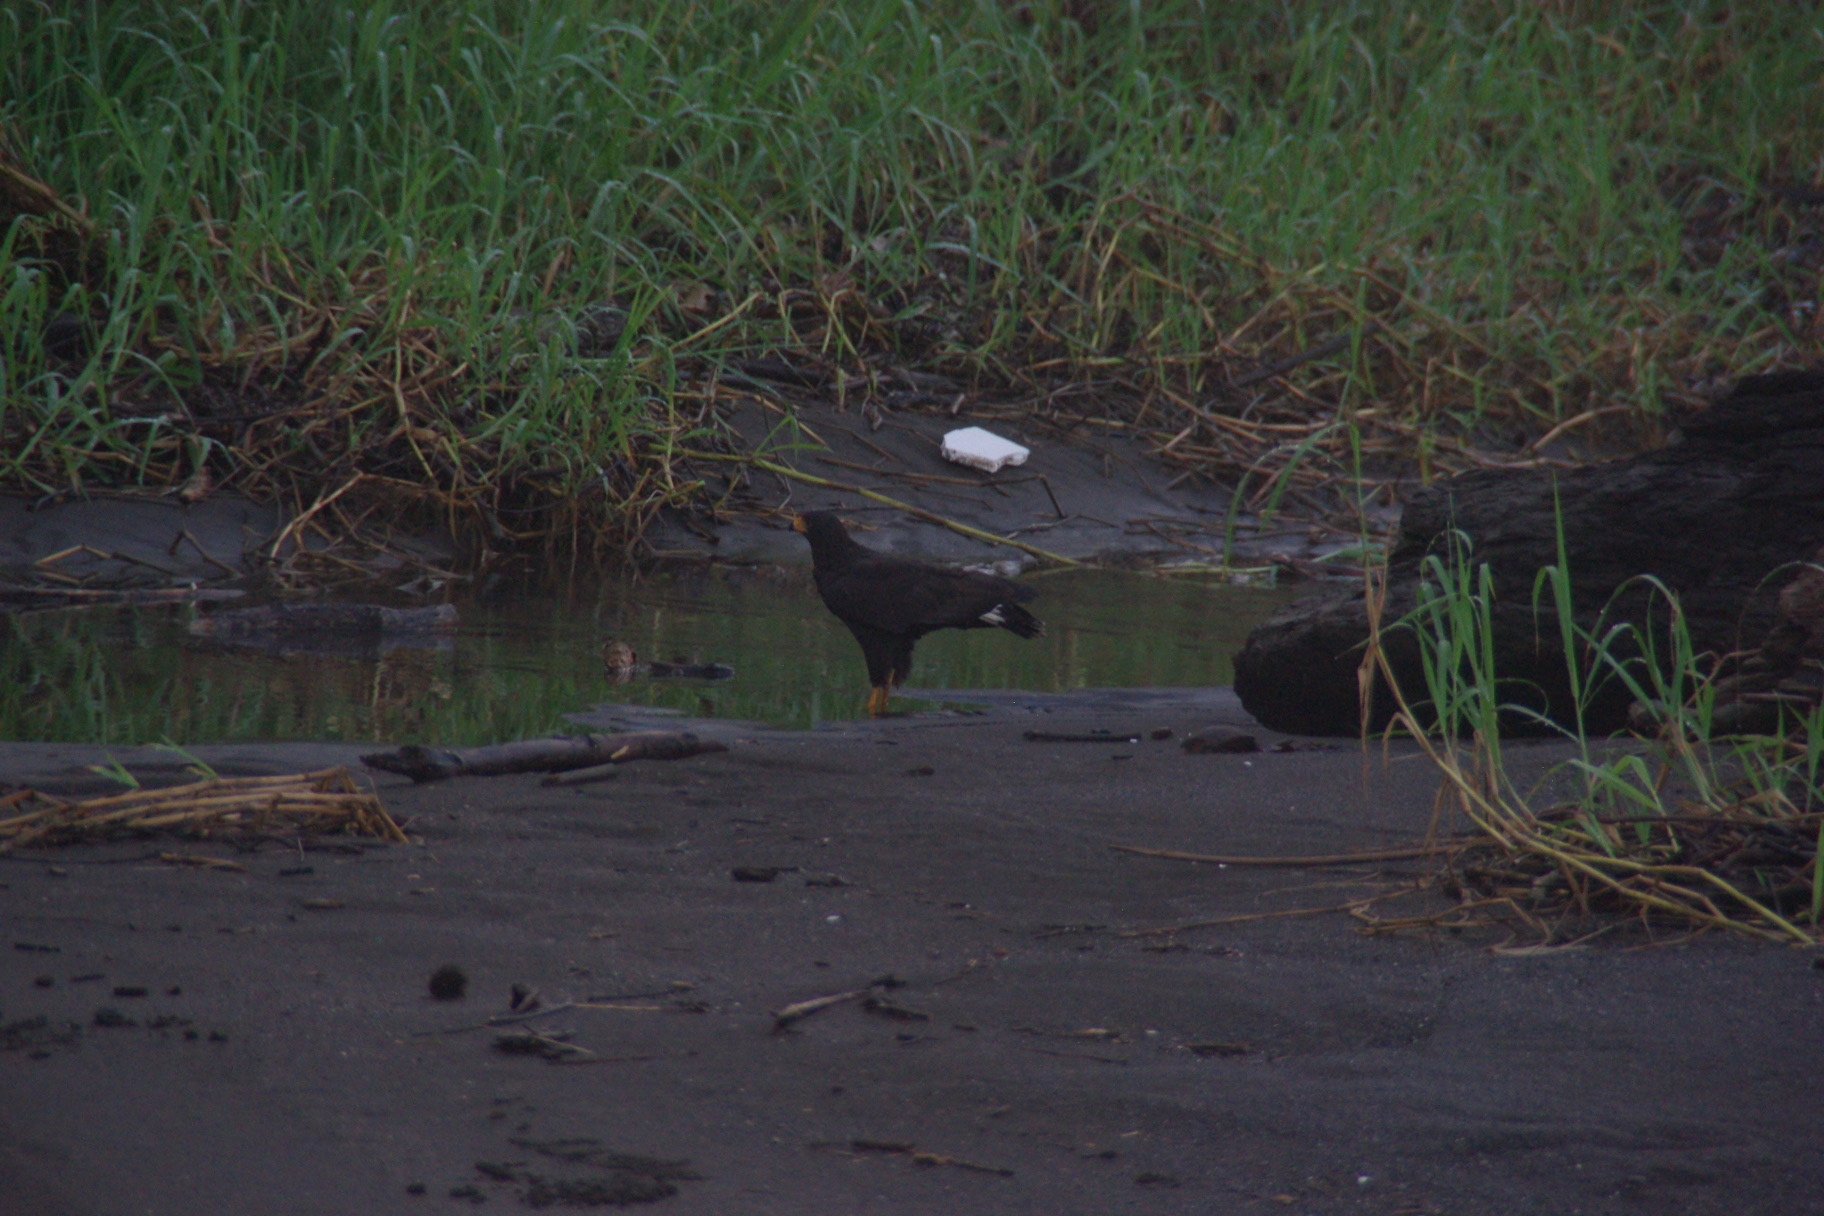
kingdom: Animalia
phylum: Chordata
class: Aves
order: Accipitriformes
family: Accipitridae
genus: Buteogallus
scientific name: Buteogallus anthracinus
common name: Common black hawk
